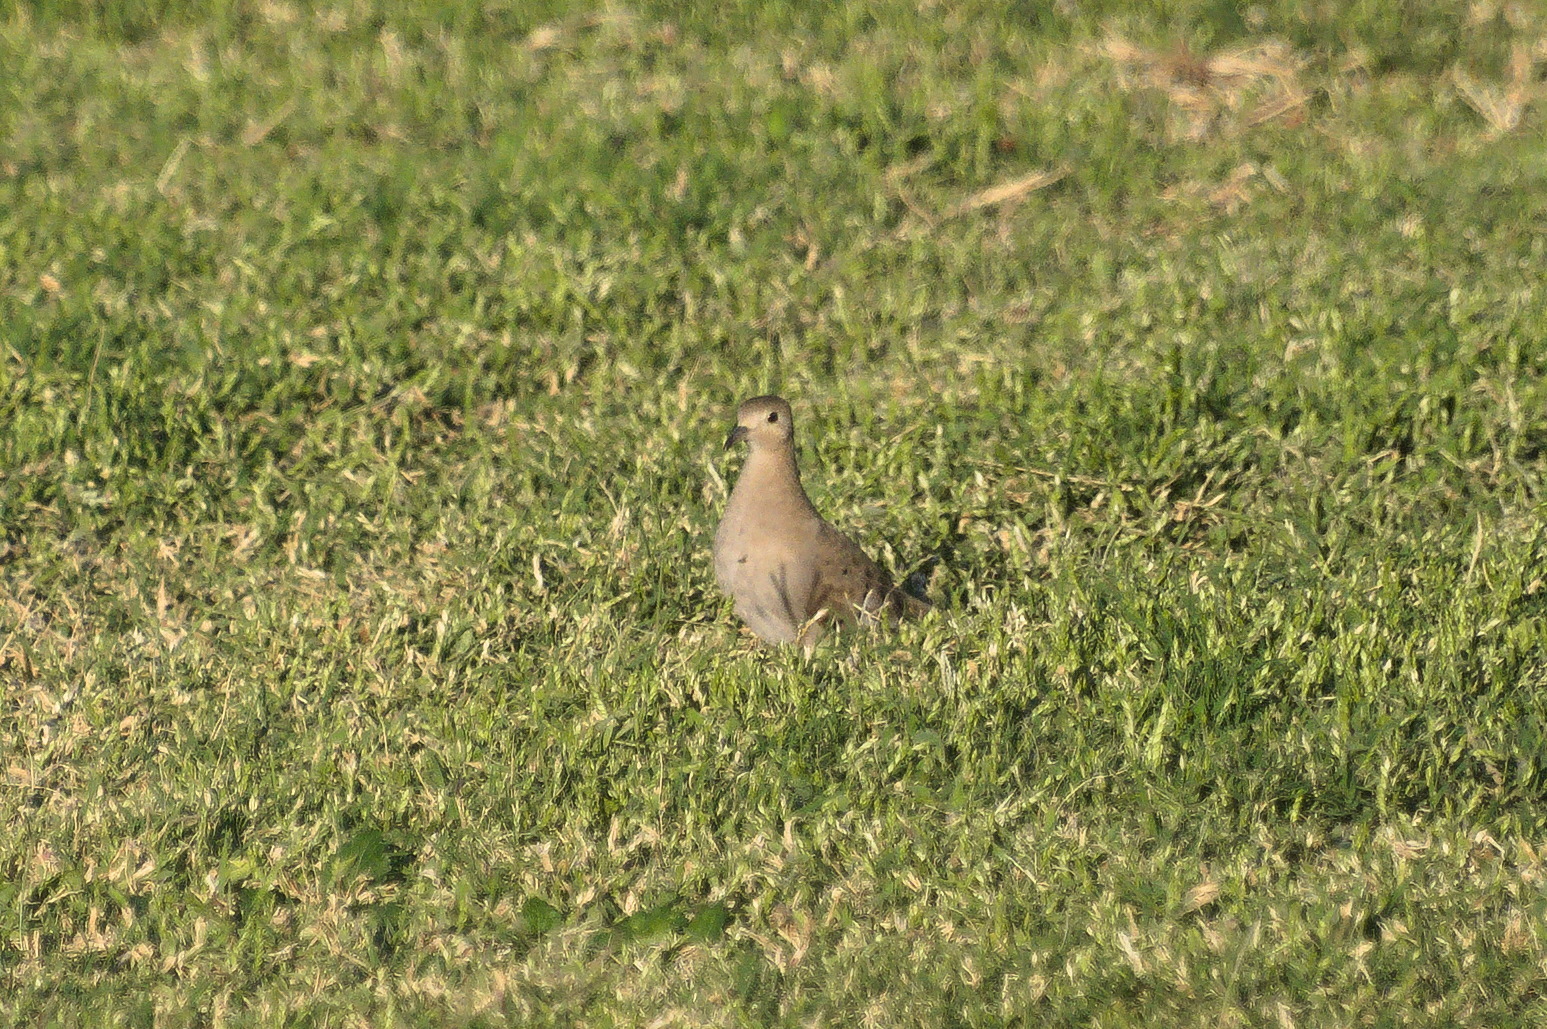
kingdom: Animalia
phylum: Chordata
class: Aves
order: Columbiformes
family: Columbidae
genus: Columbina
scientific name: Columbina talpacoti
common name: Ruddy ground dove
